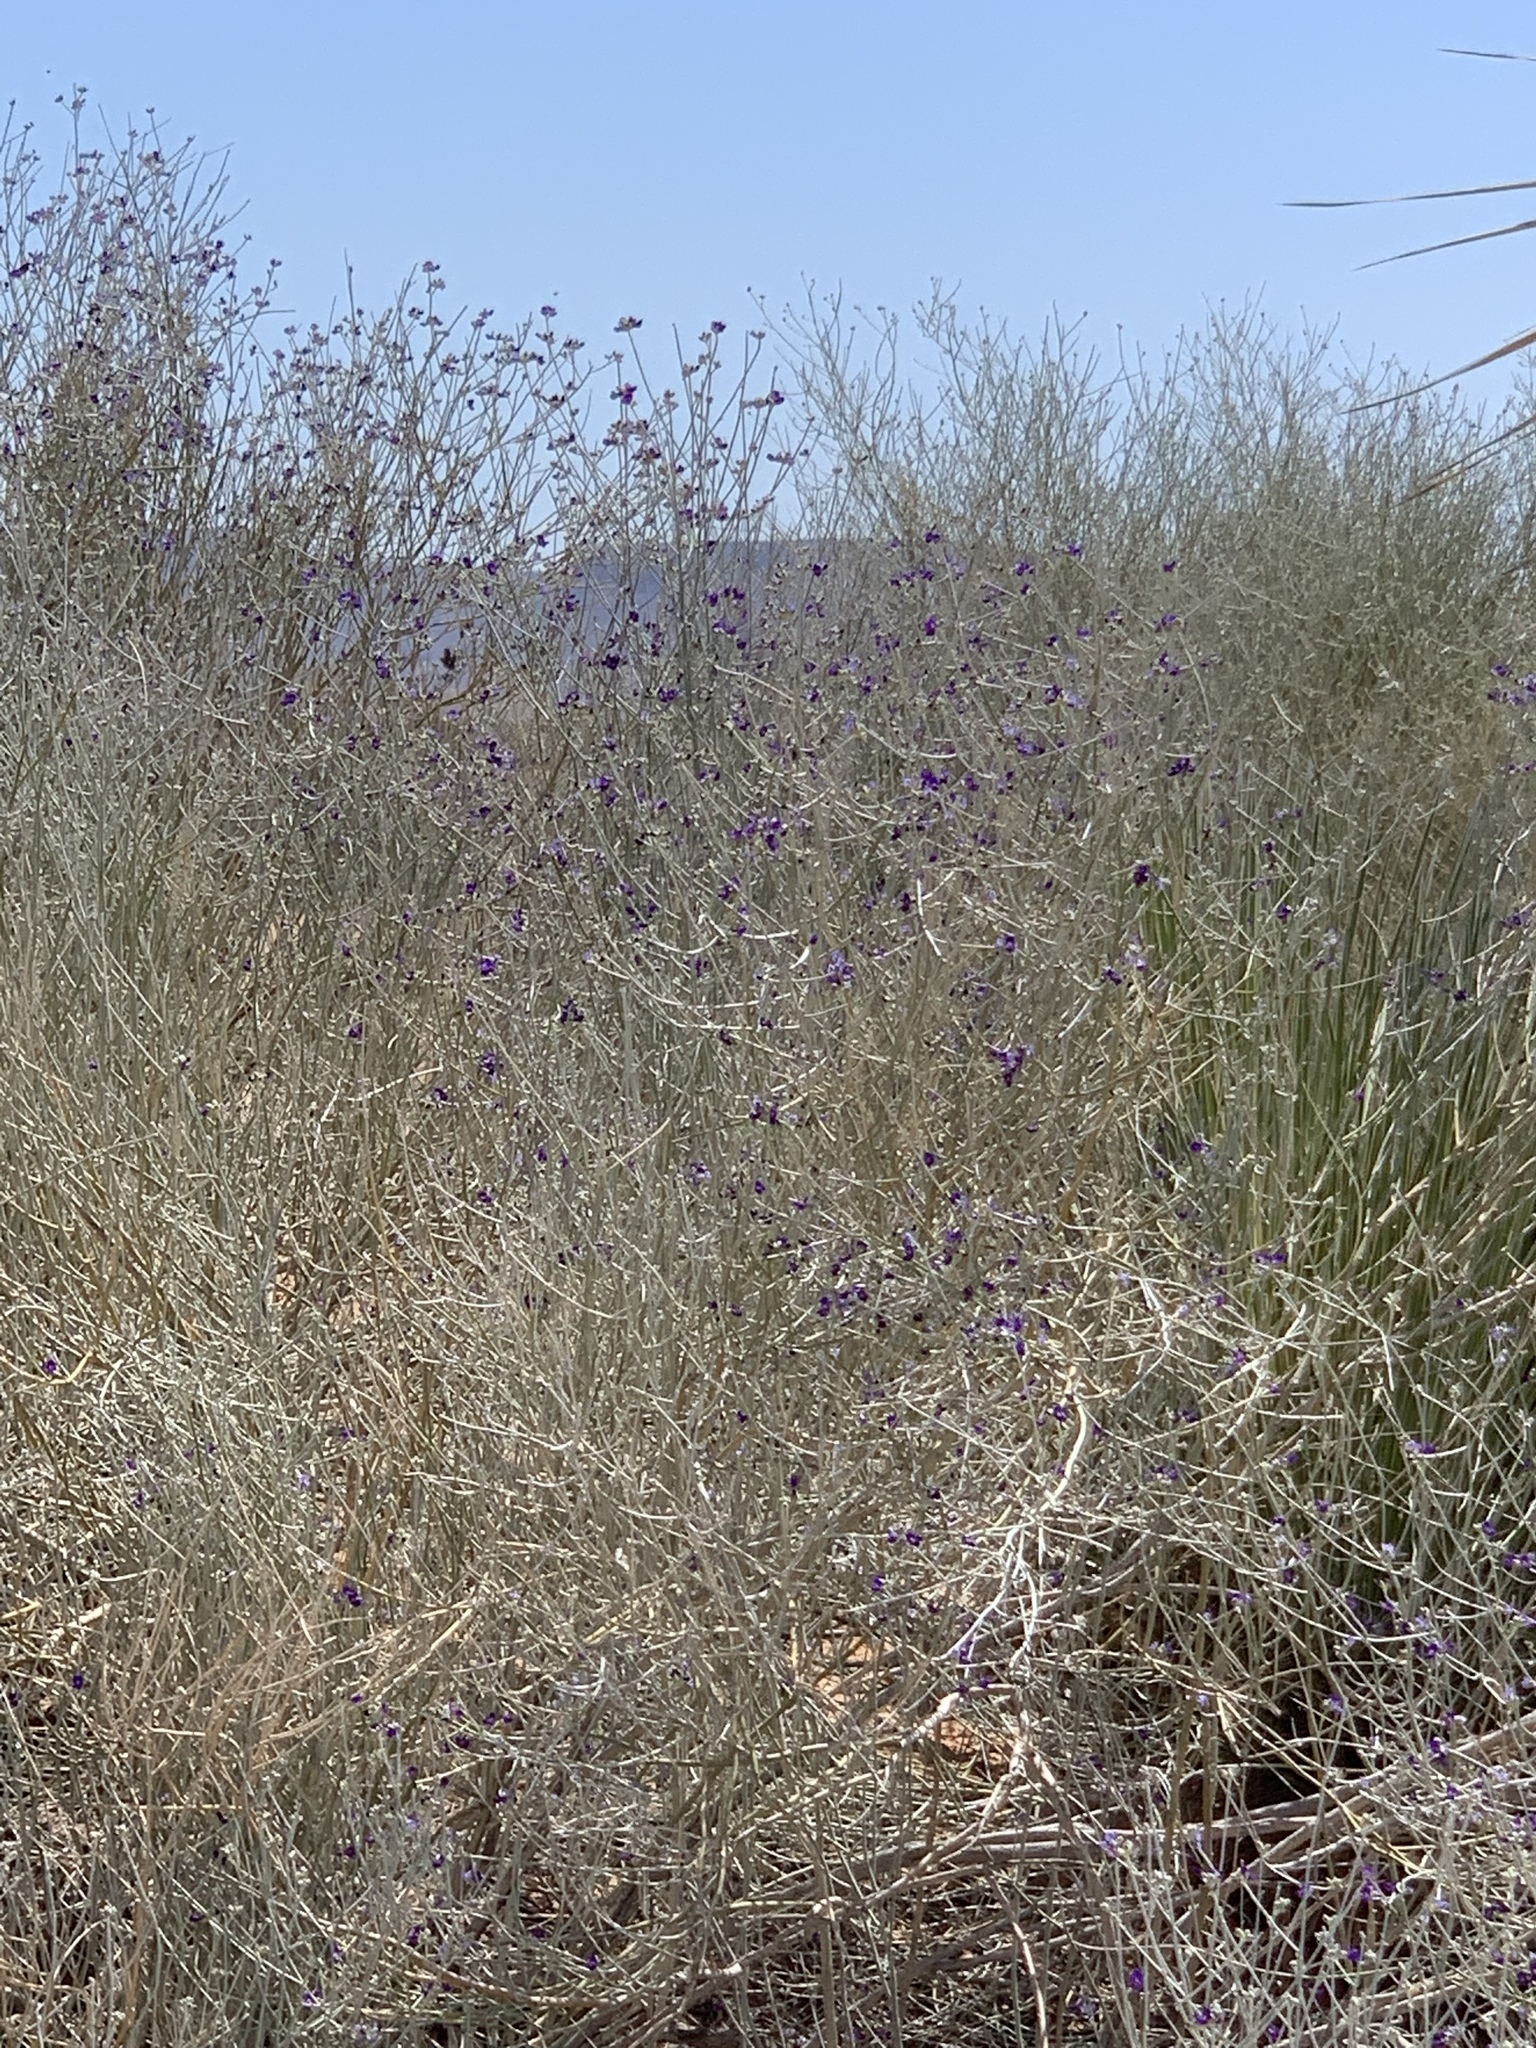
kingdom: Plantae
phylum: Tracheophyta
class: Magnoliopsida
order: Fabales
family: Fabaceae
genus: Psorothamnus
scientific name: Psorothamnus scoparius
